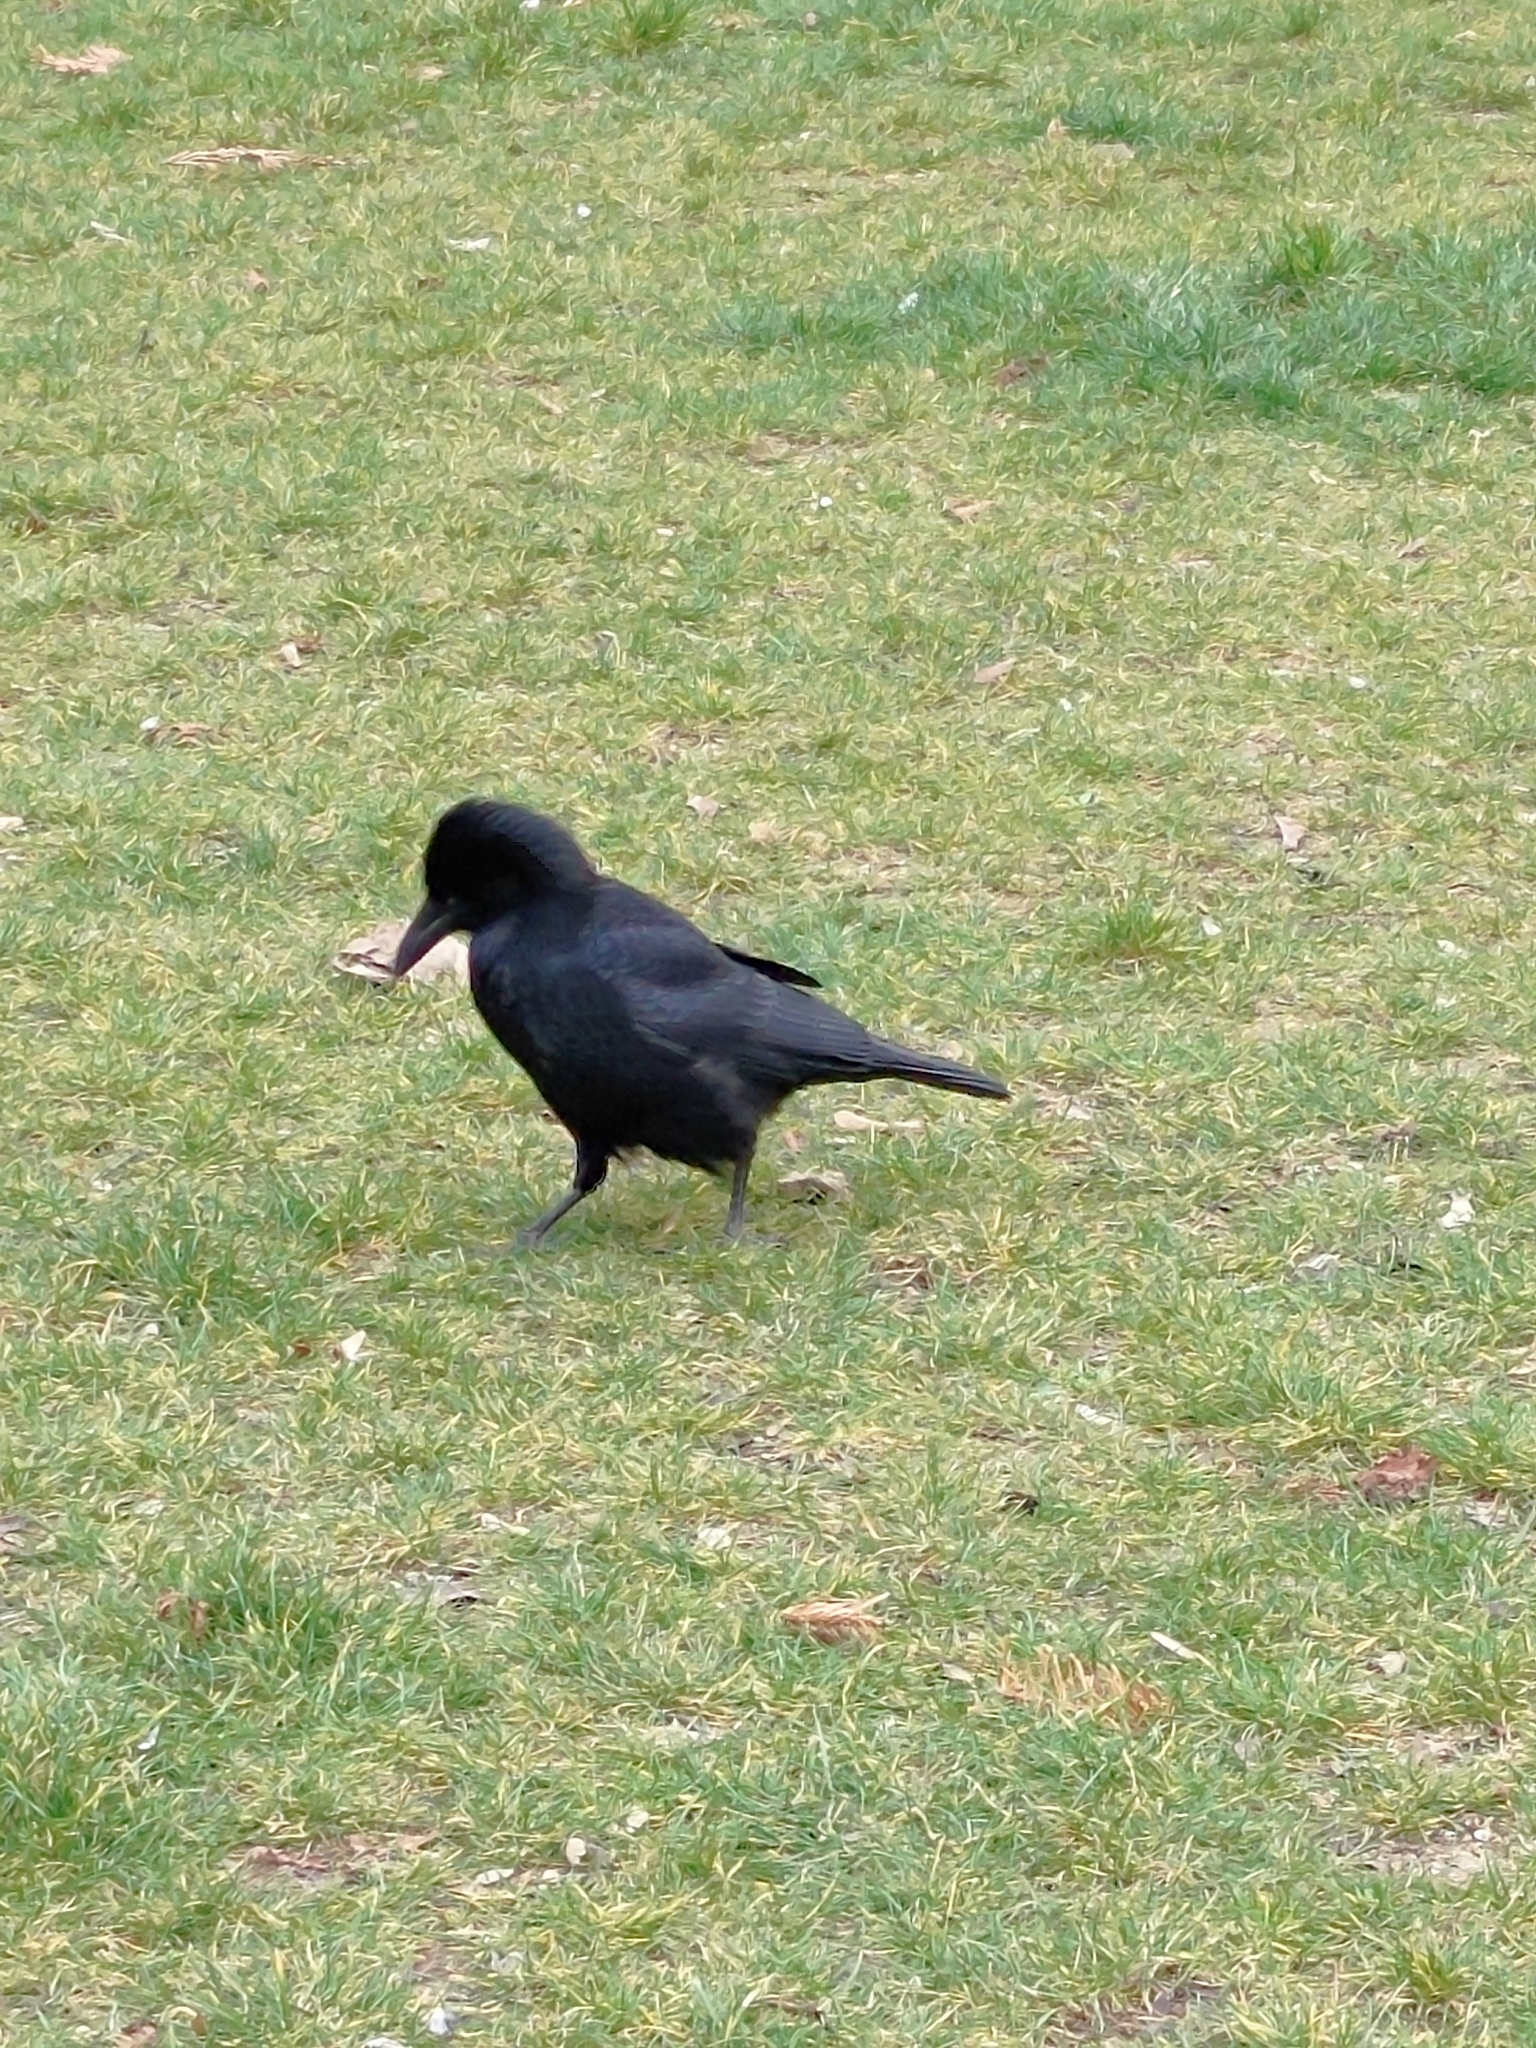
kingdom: Animalia
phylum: Chordata
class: Aves
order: Passeriformes
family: Corvidae
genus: Corvus
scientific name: Corvus corone
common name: Carrion crow
